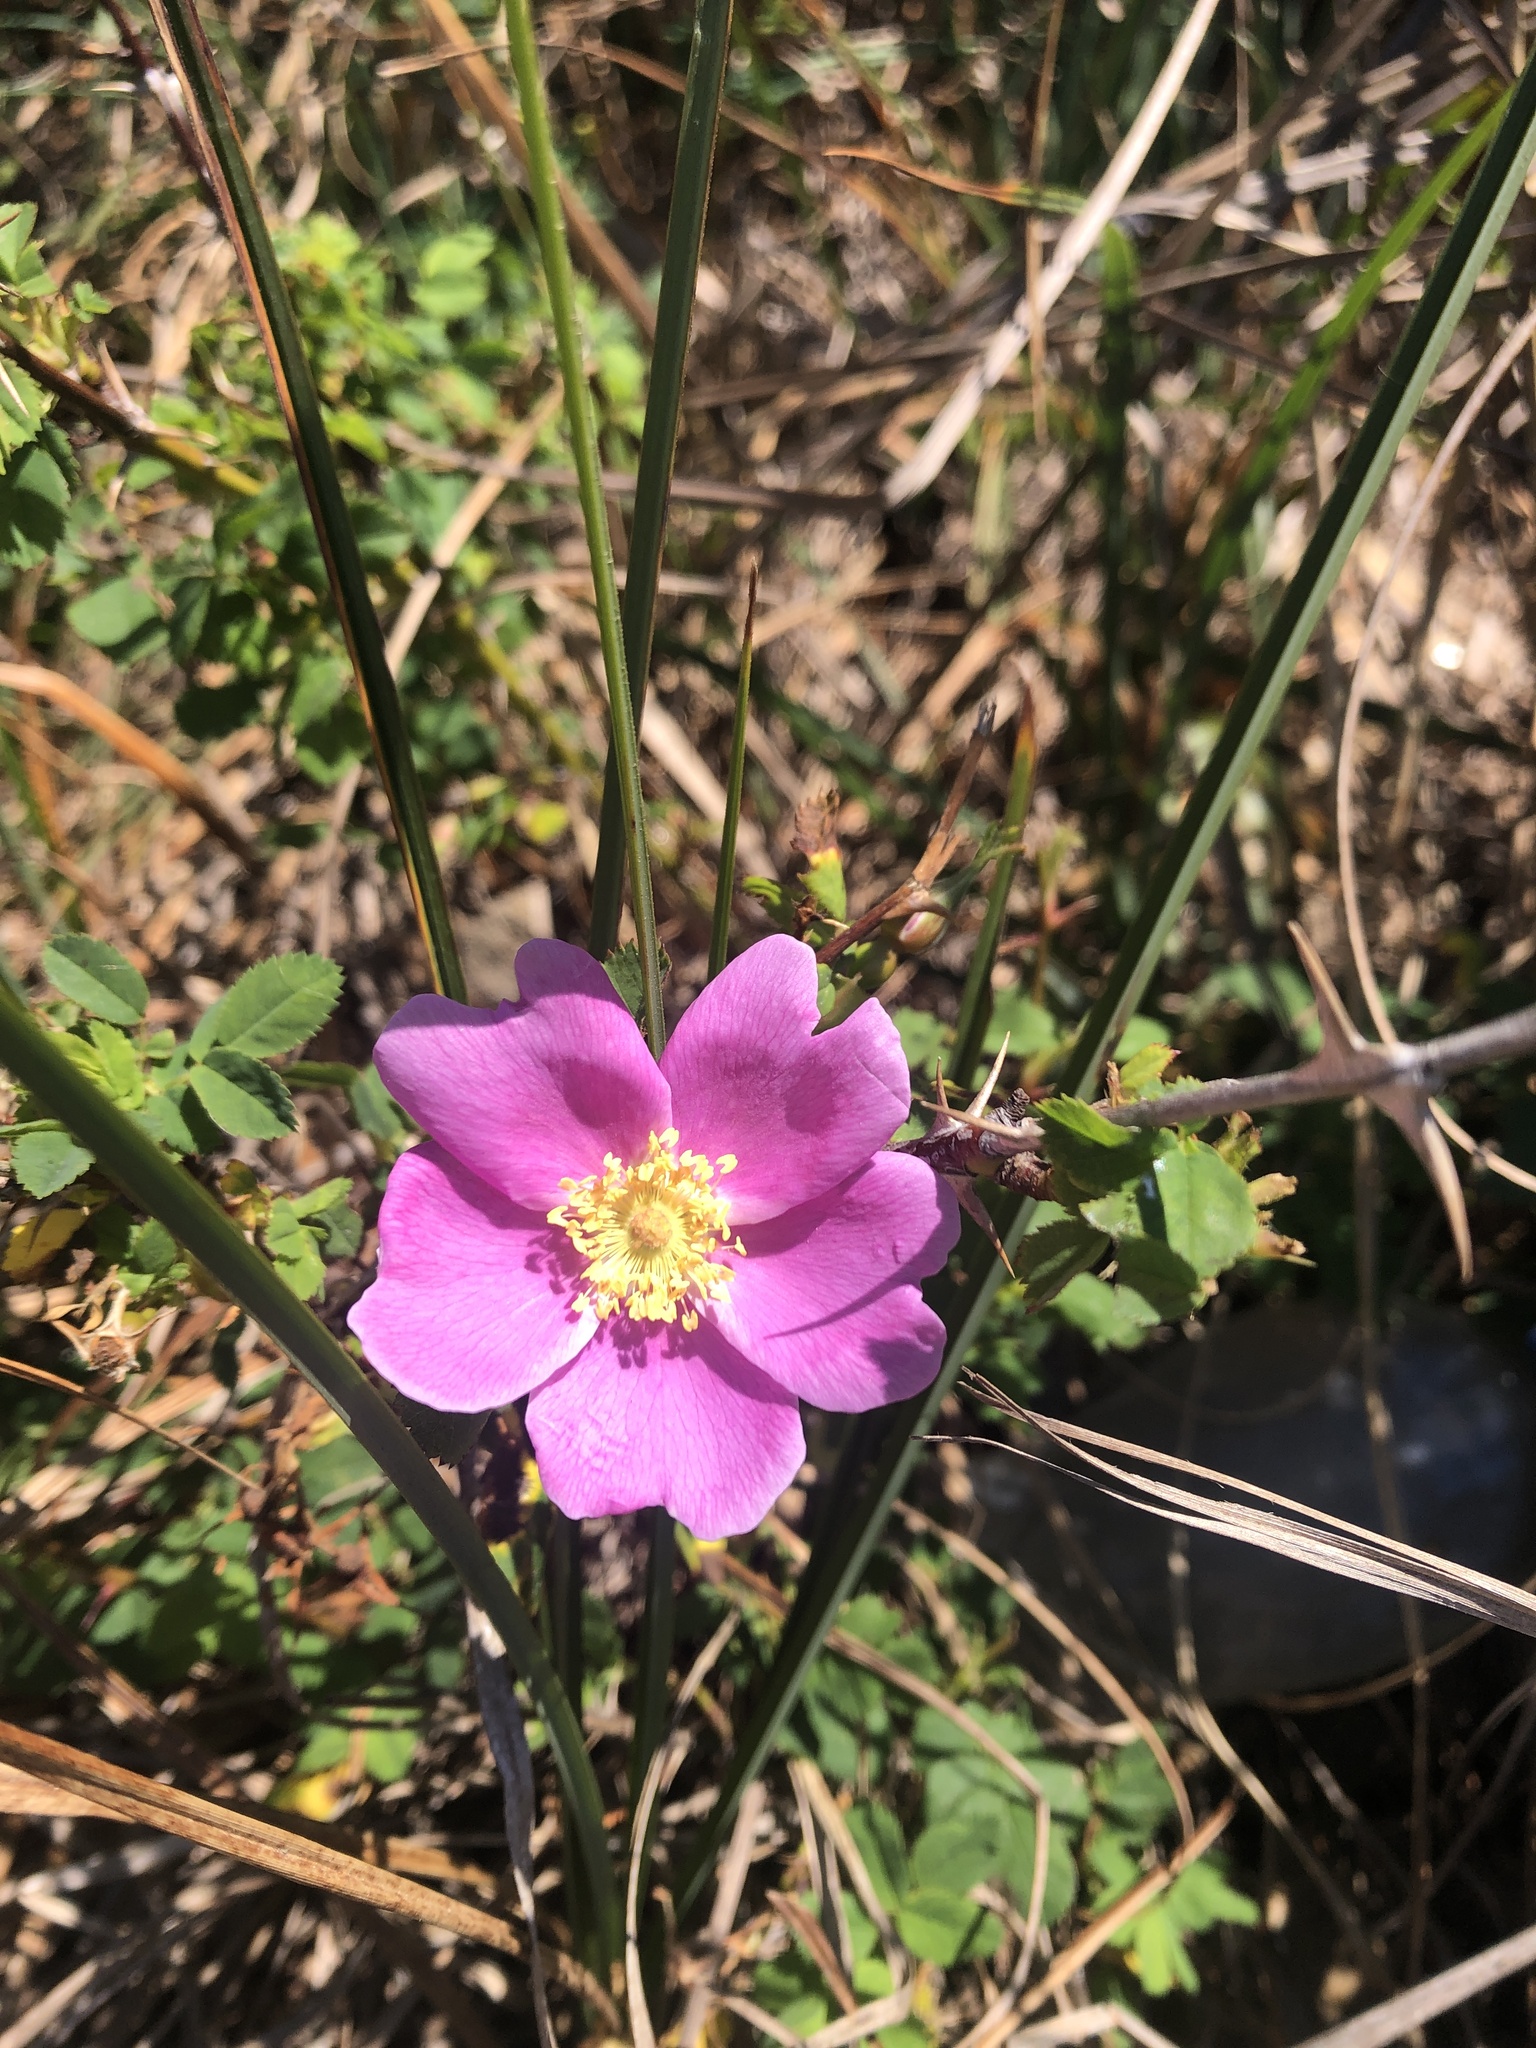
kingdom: Plantae
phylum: Tracheophyta
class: Magnoliopsida
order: Rosales
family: Rosaceae
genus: Rosa
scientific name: Rosa californica
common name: California rose
